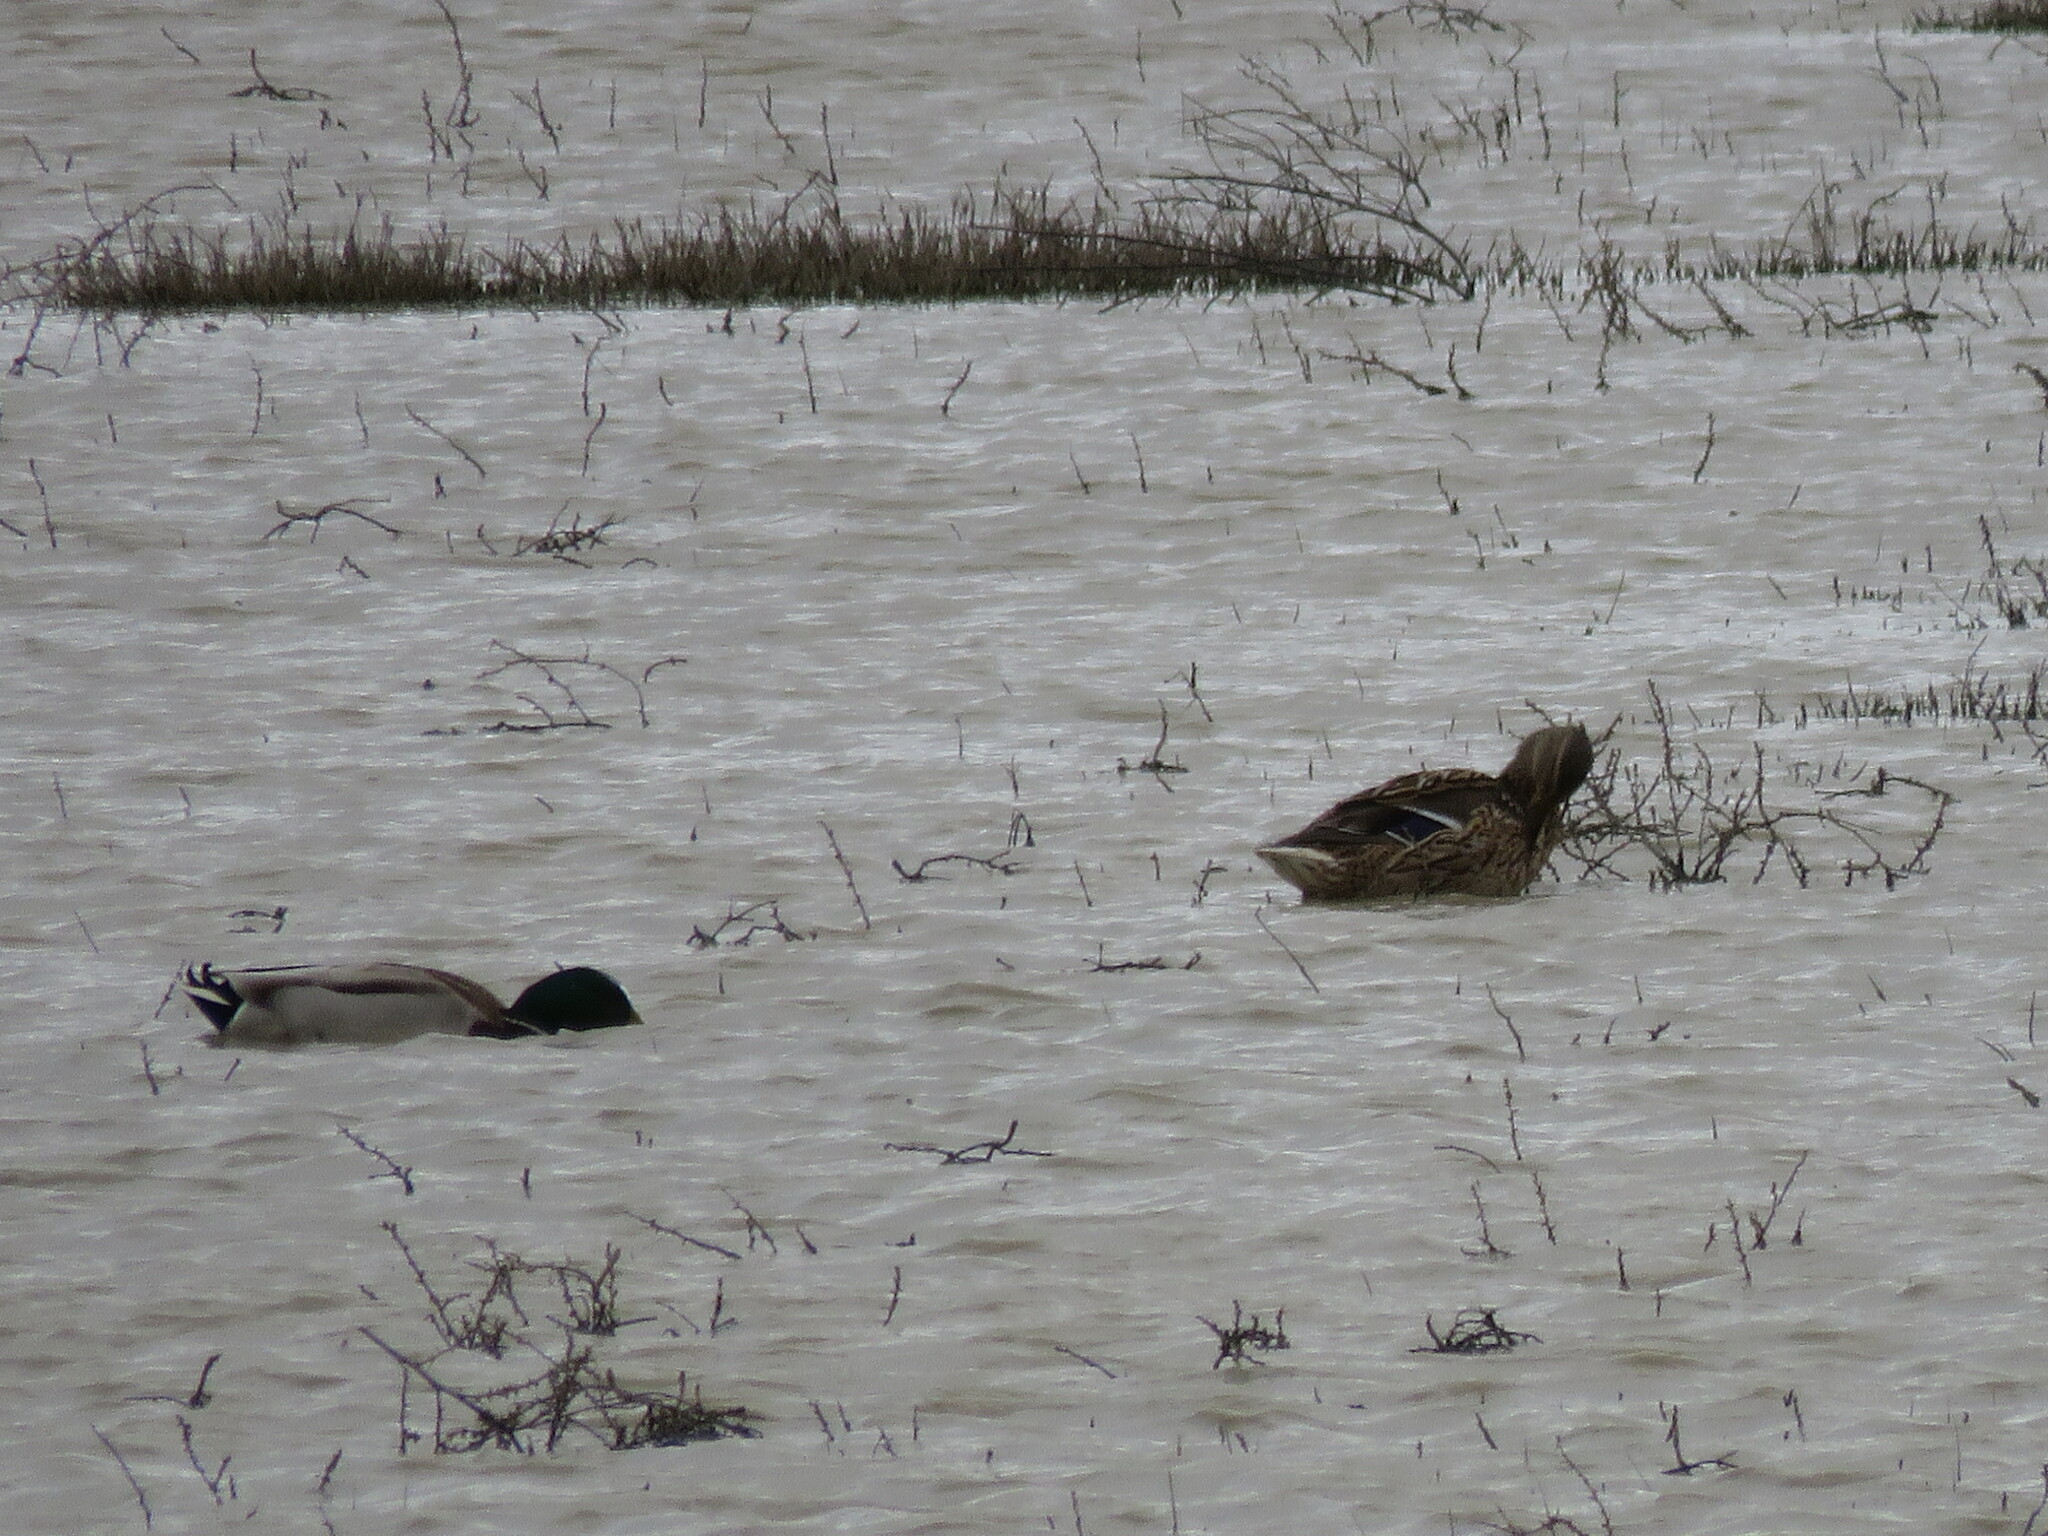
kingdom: Animalia
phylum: Chordata
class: Aves
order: Anseriformes
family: Anatidae
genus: Anas
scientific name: Anas platyrhynchos
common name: Mallard
